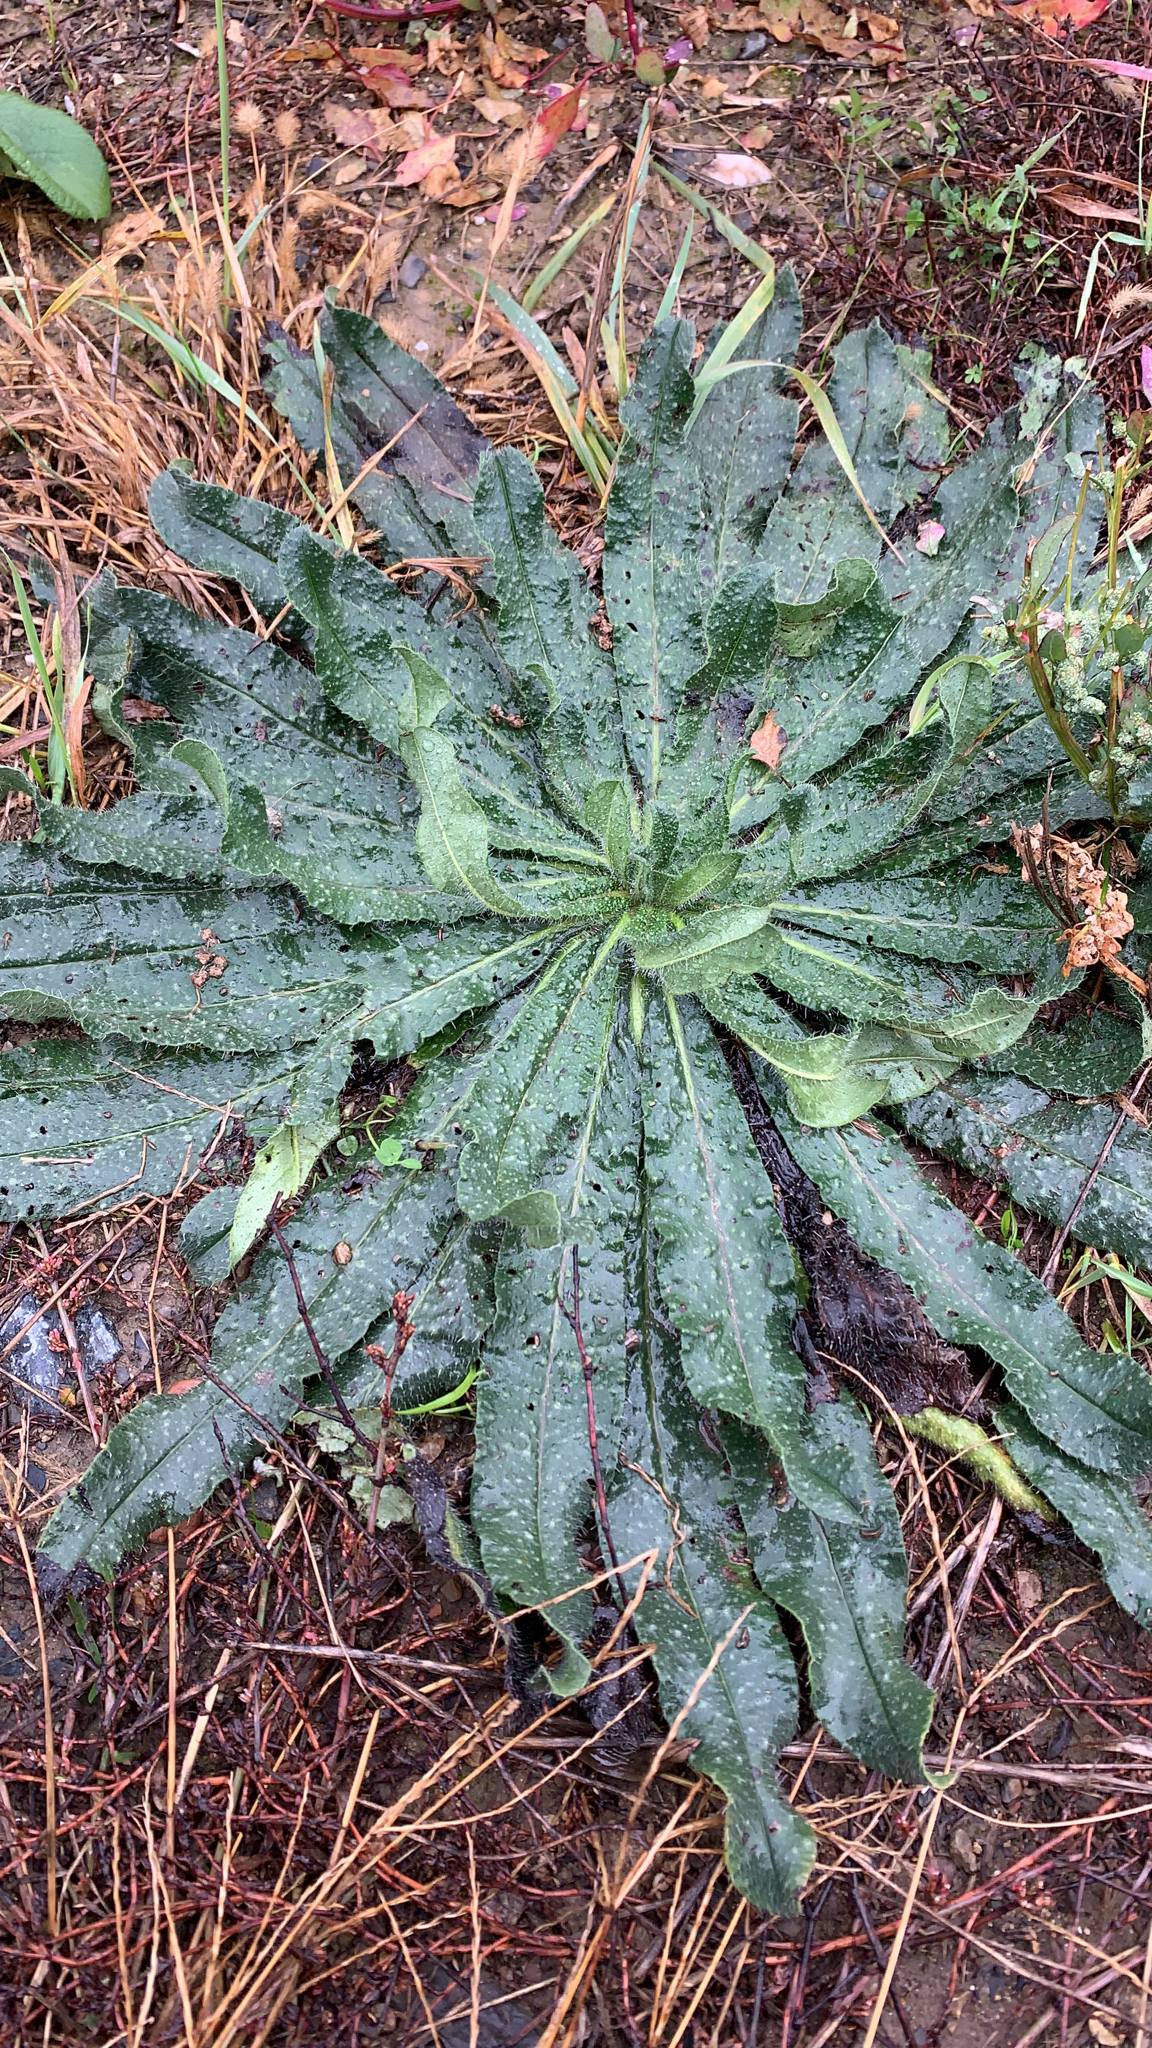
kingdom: Plantae
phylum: Tracheophyta
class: Magnoliopsida
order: Boraginales
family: Boraginaceae
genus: Echium
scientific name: Echium vulgare
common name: Common viper's bugloss
